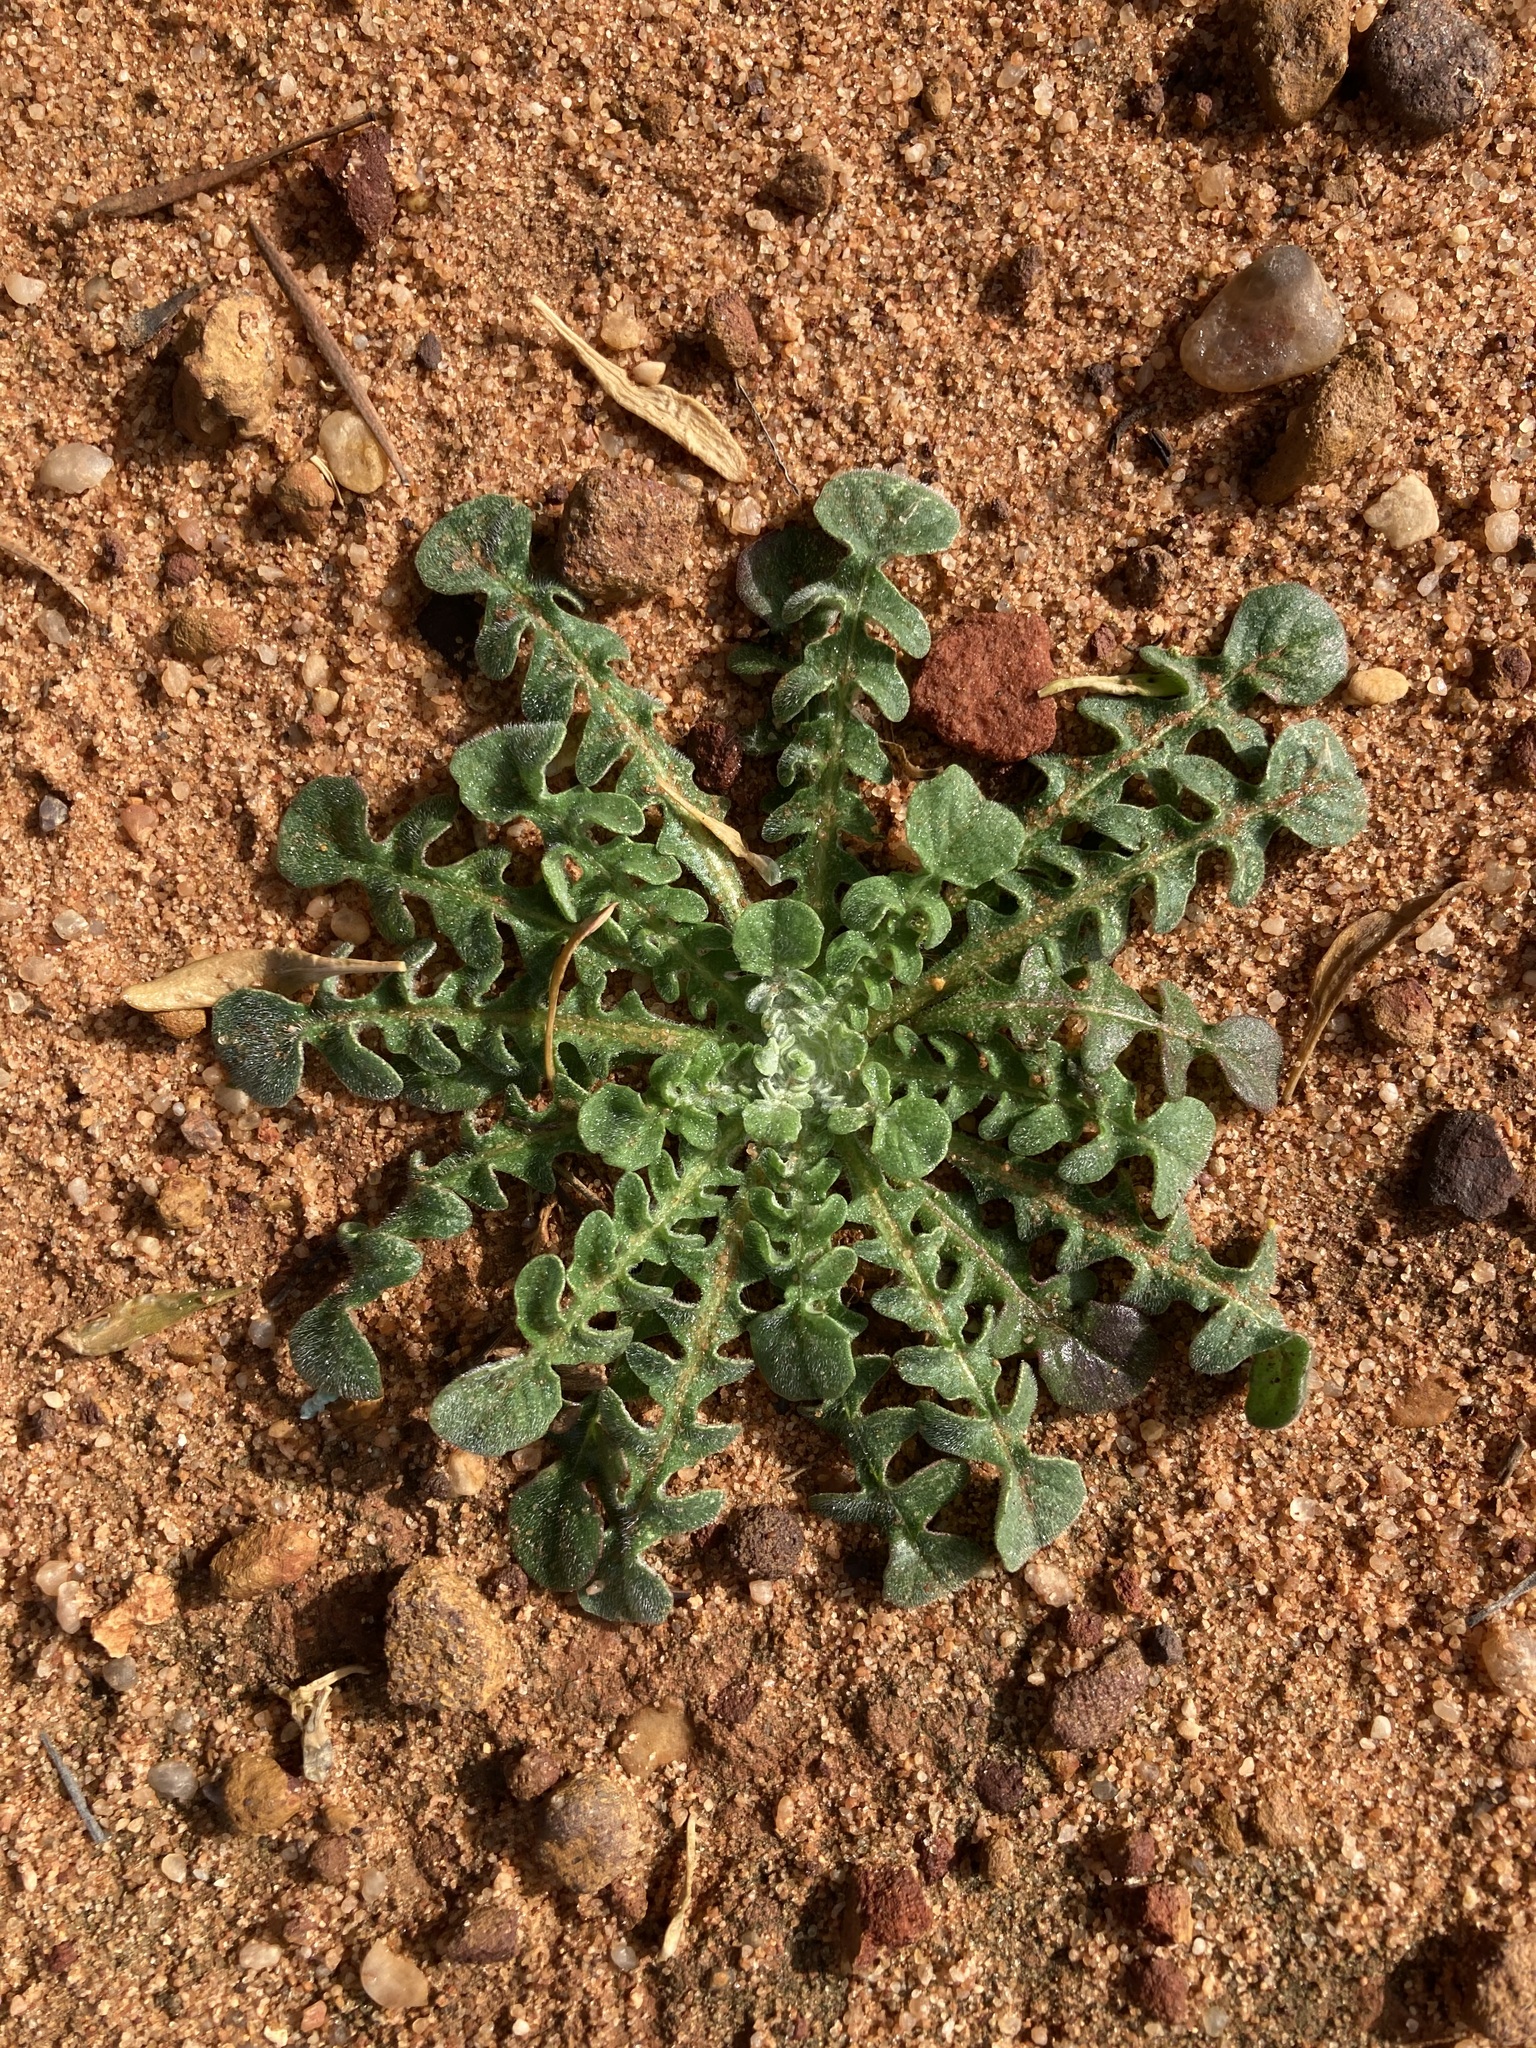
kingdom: Plantae
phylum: Tracheophyta
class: Magnoliopsida
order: Asterales
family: Asteraceae
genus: Arctotheca
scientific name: Arctotheca calendula
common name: Capeweed
